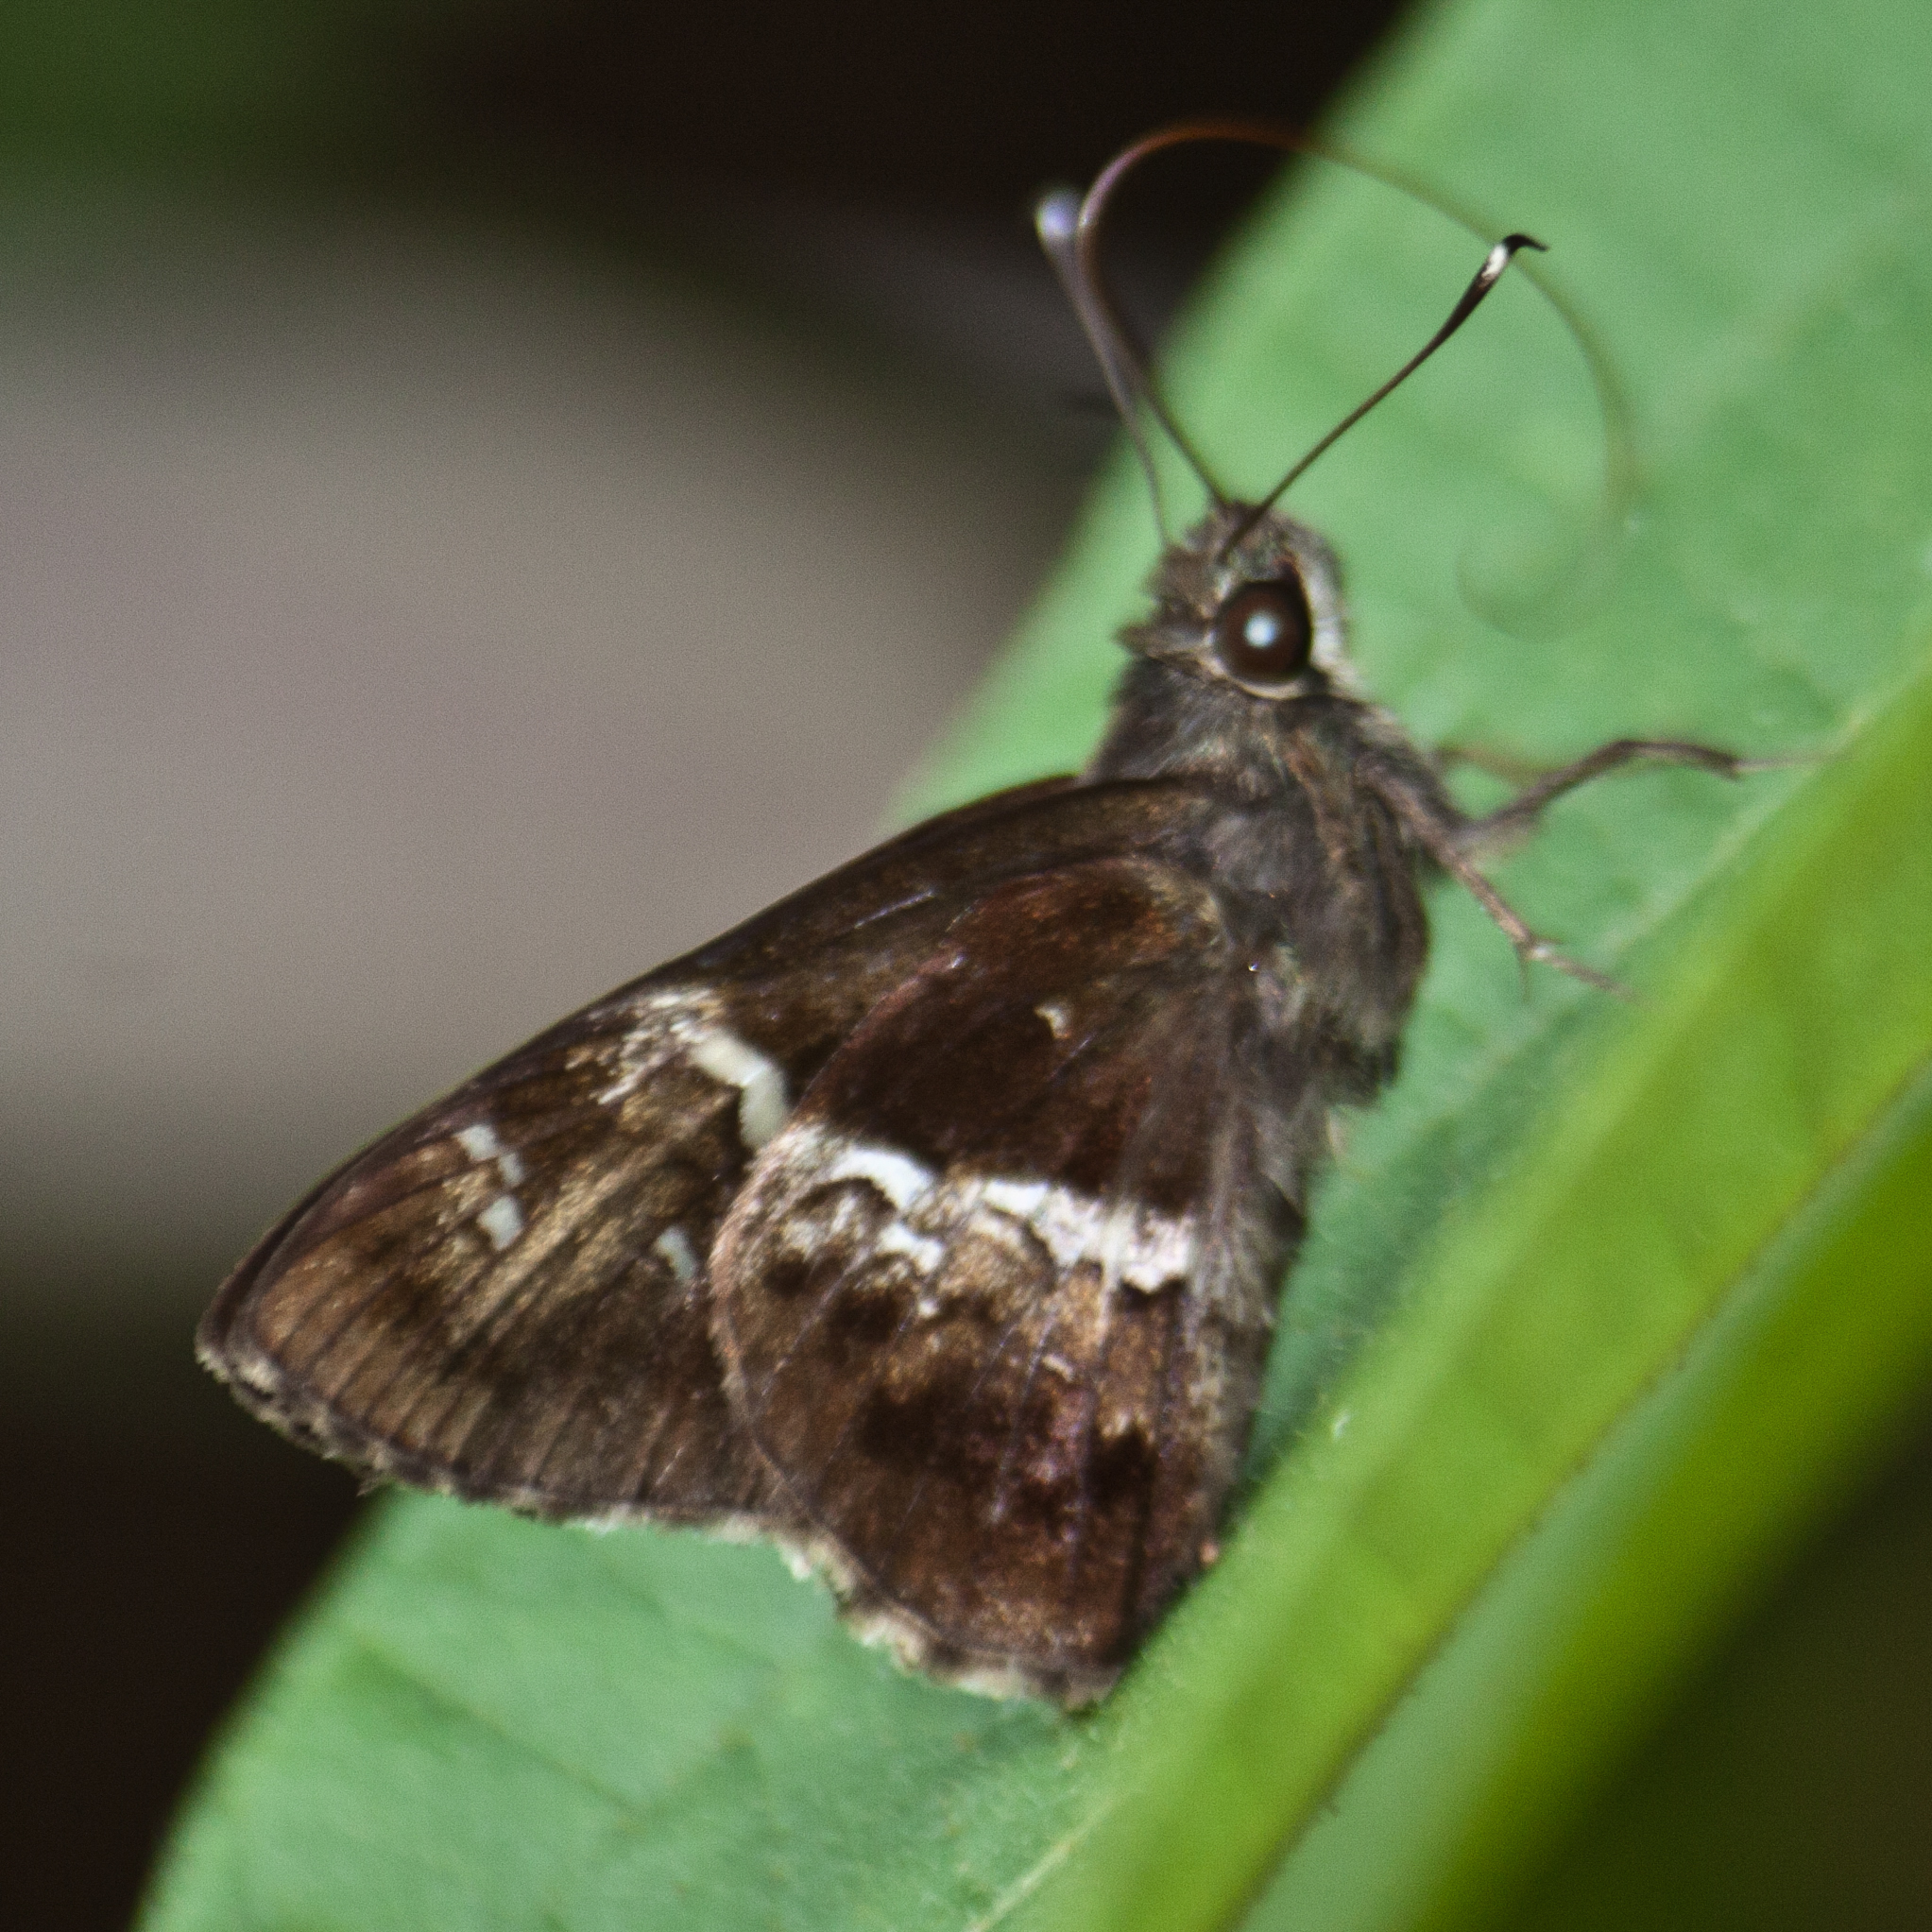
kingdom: Animalia
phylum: Arthropoda
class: Insecta
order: Lepidoptera
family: Hesperiidae
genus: Hyarotis
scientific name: Hyarotis adrastus
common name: Tree flitter
